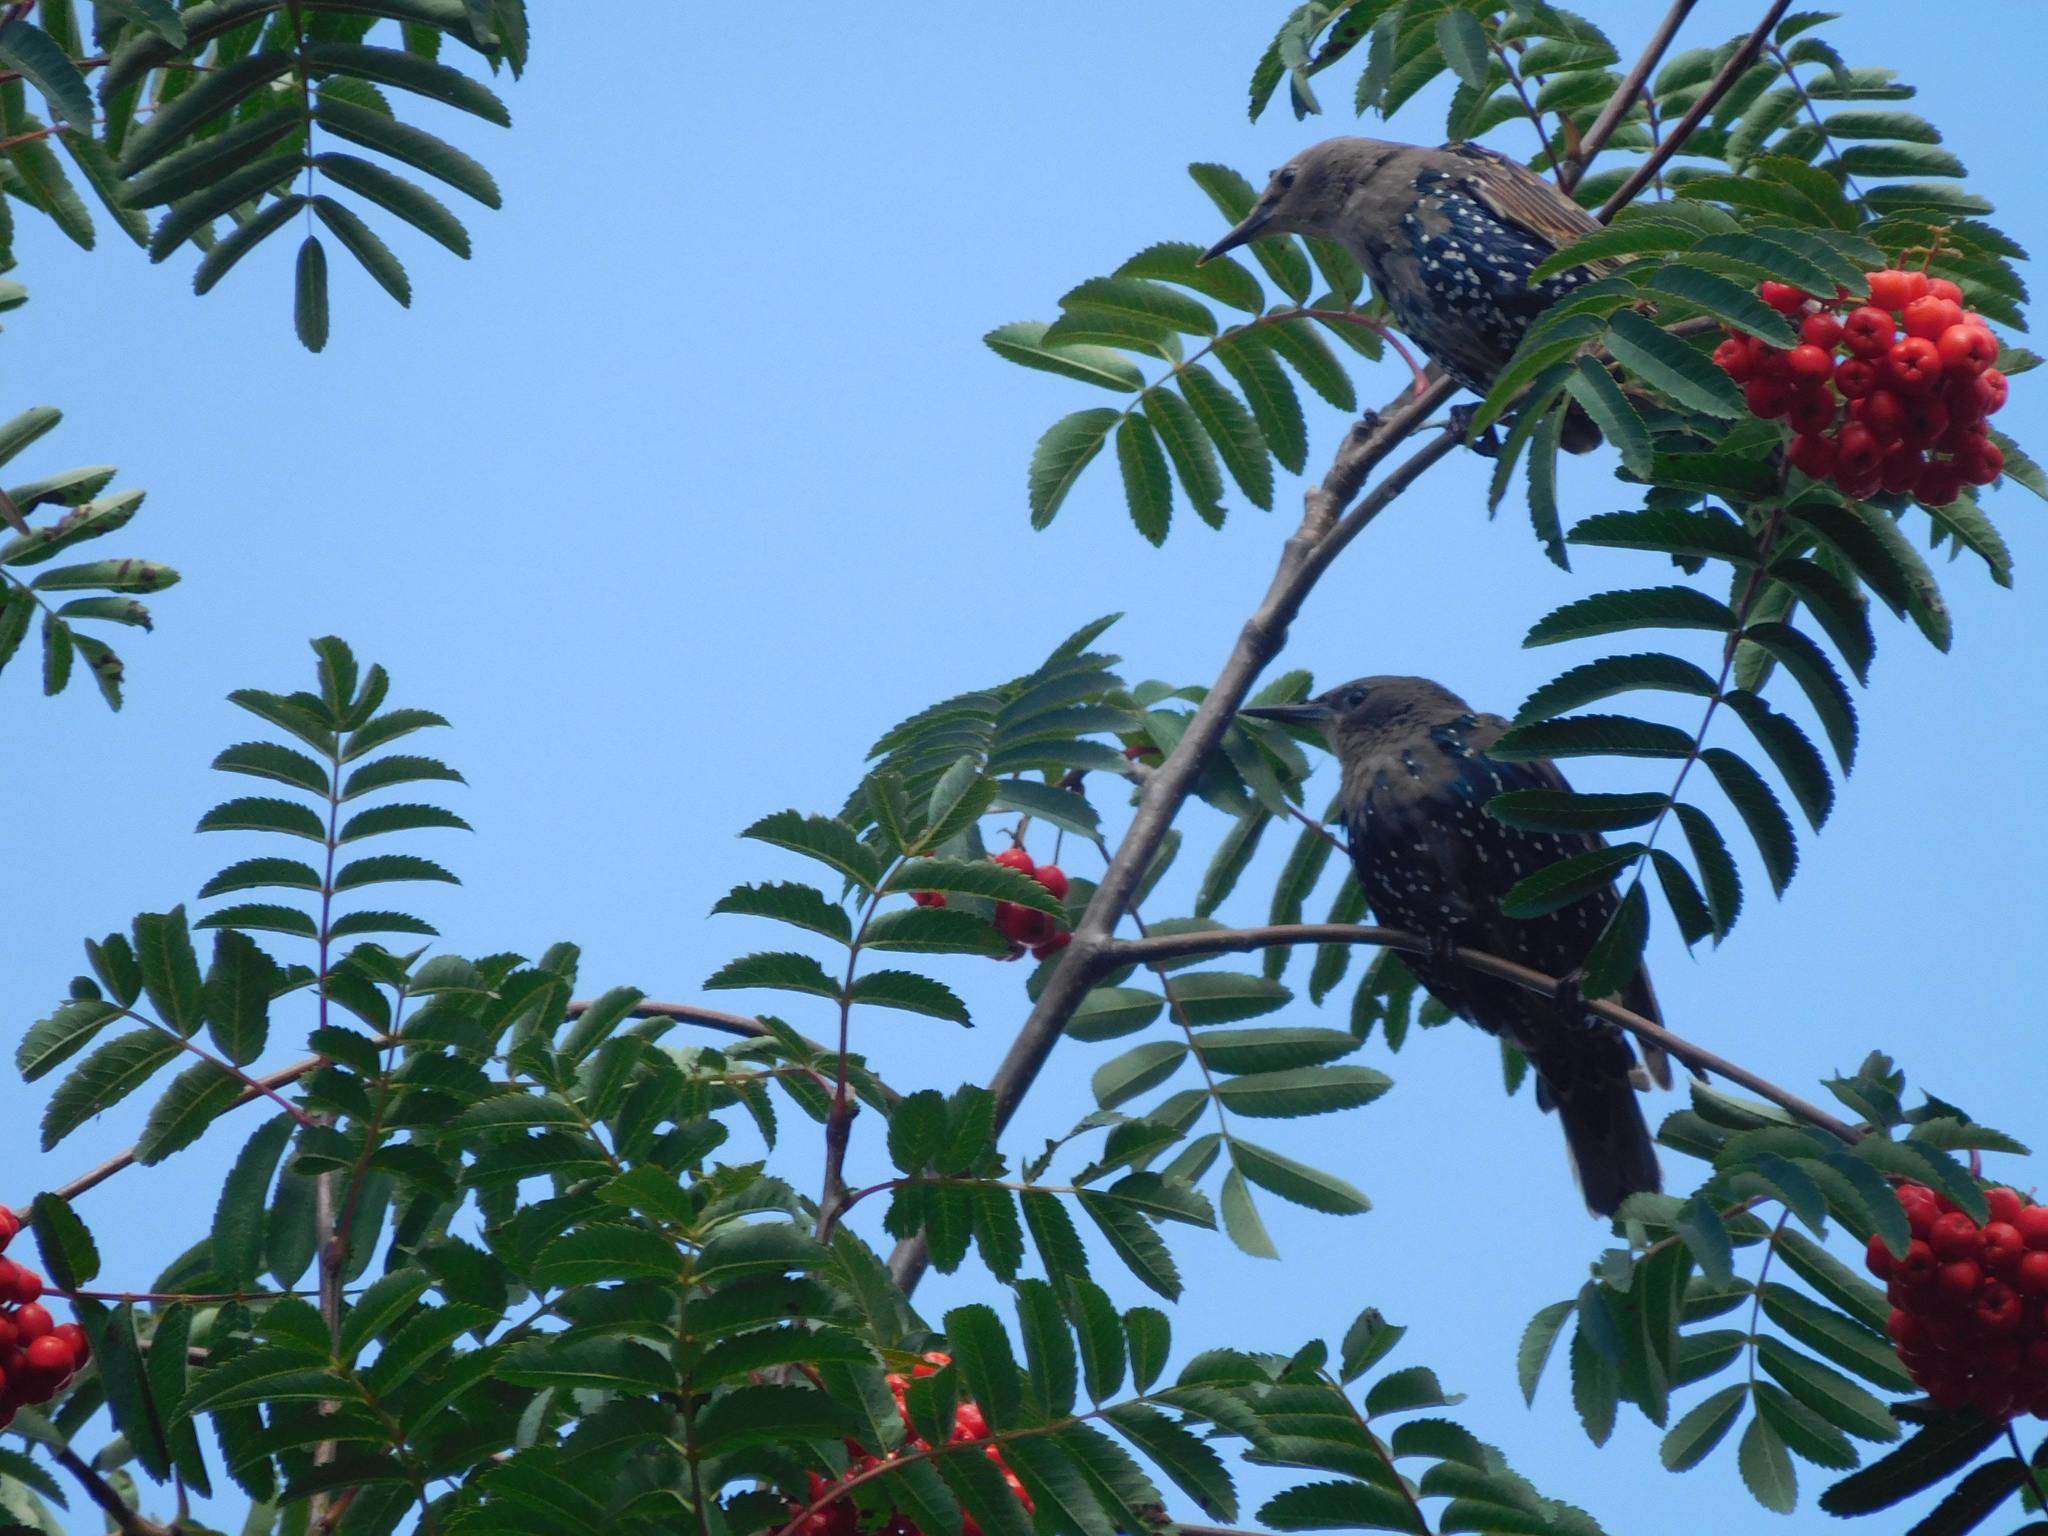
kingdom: Animalia
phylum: Chordata
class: Aves
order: Passeriformes
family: Sturnidae
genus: Sturnus
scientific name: Sturnus vulgaris
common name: Common starling
